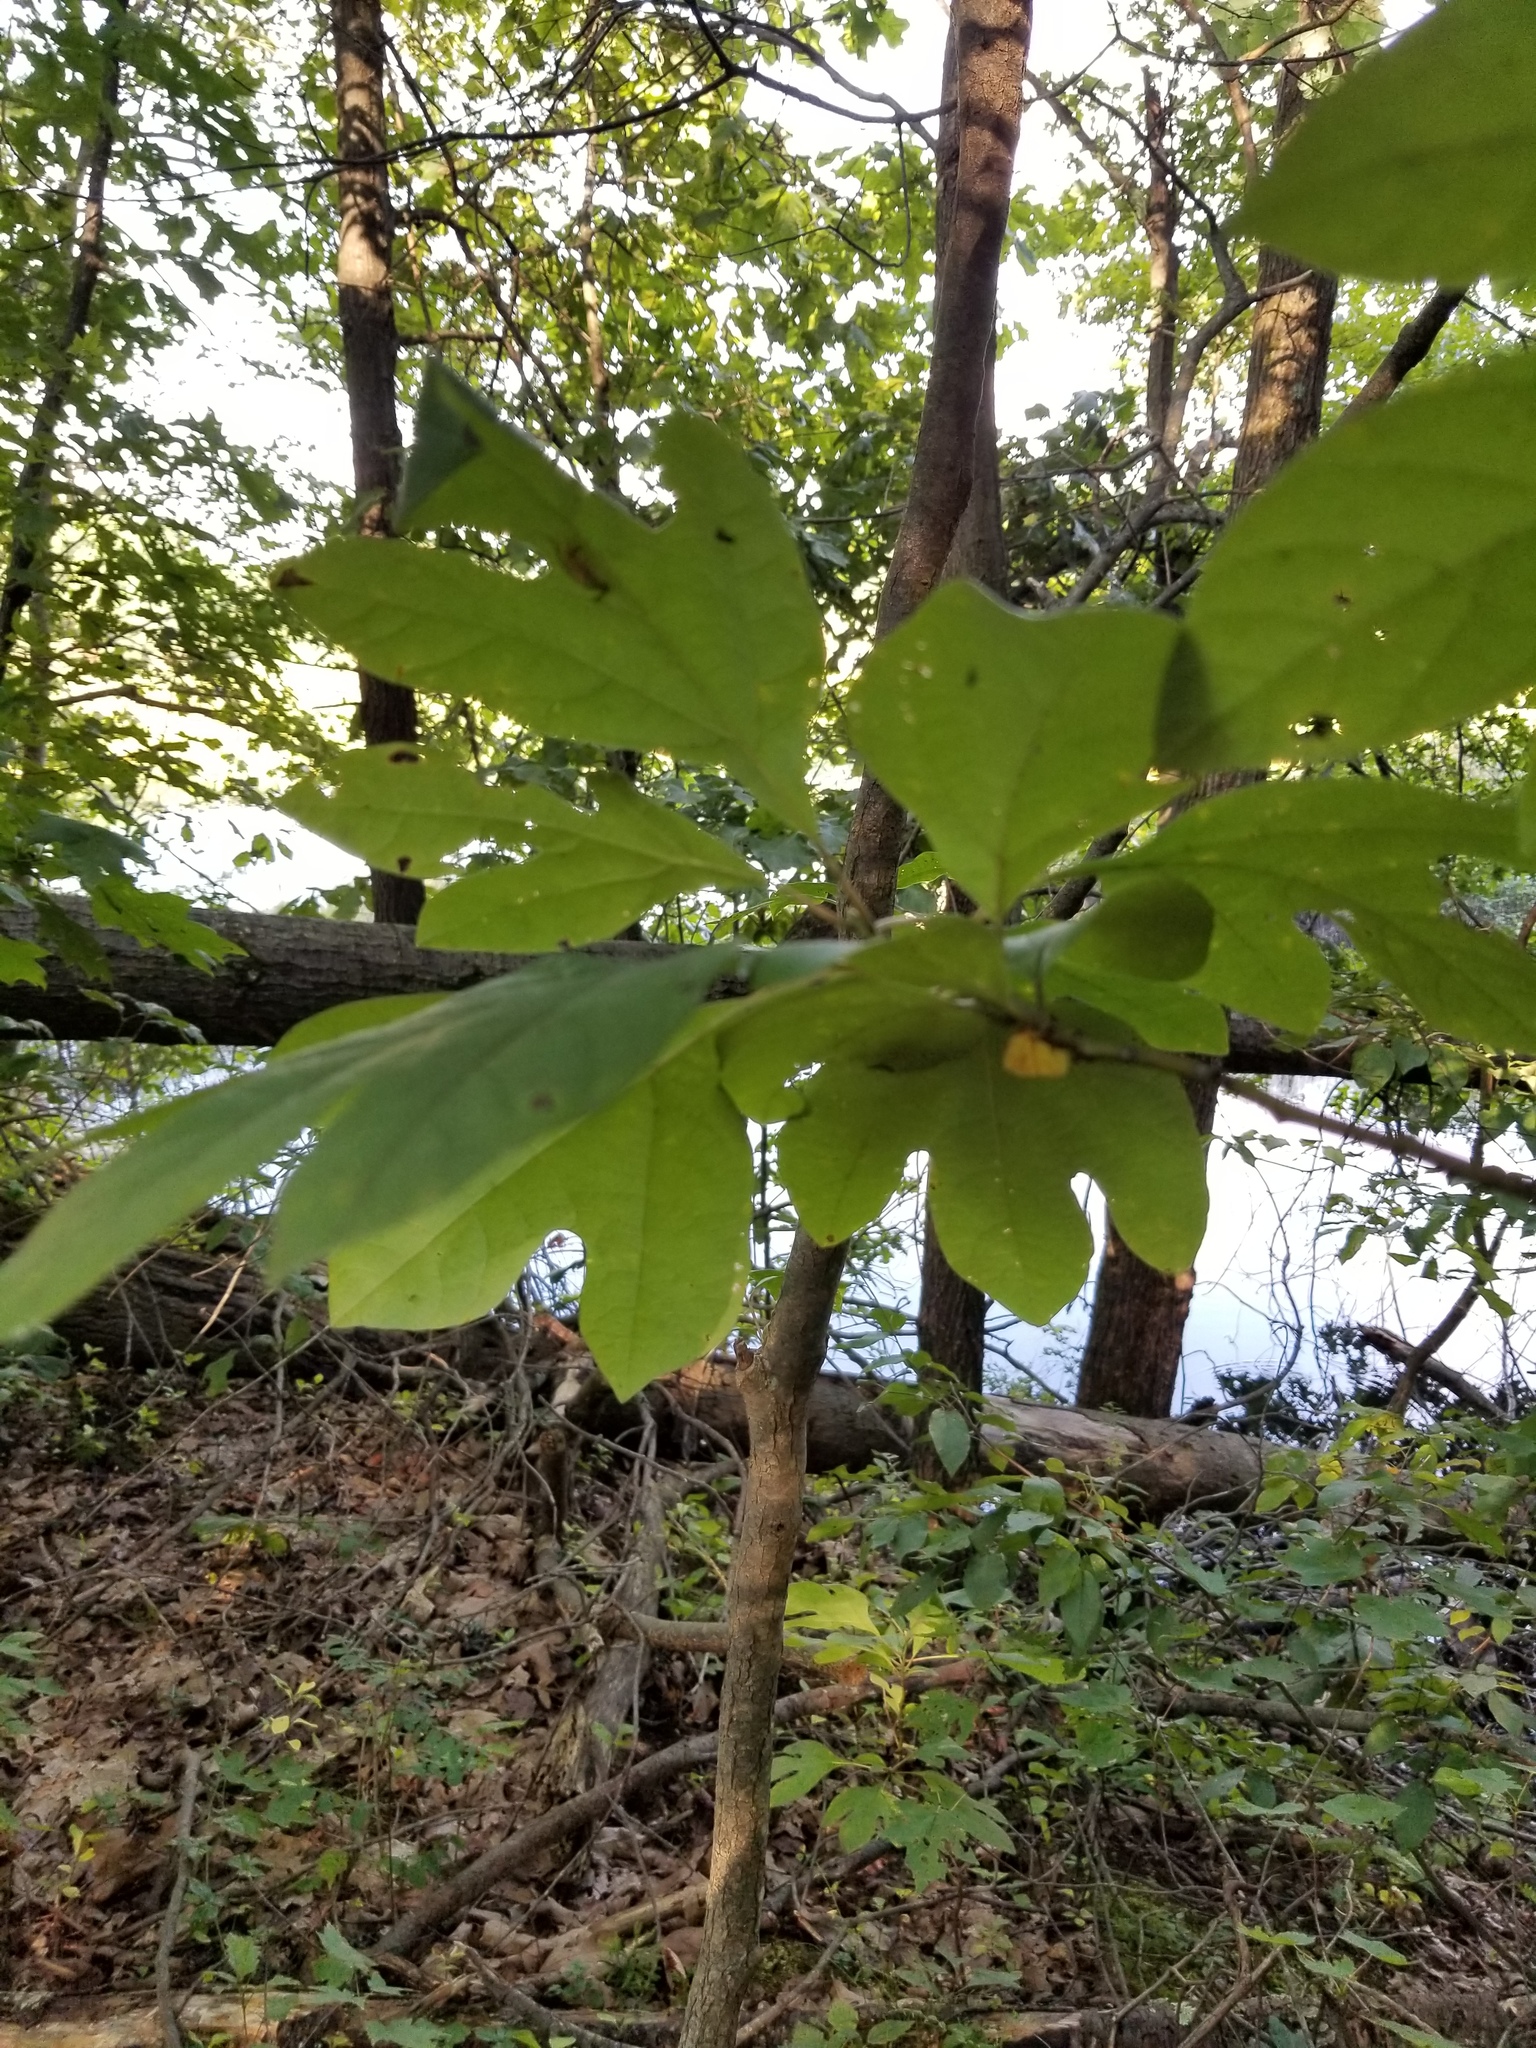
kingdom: Plantae
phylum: Tracheophyta
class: Magnoliopsida
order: Laurales
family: Lauraceae
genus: Sassafras
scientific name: Sassafras albidum
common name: Sassafras
